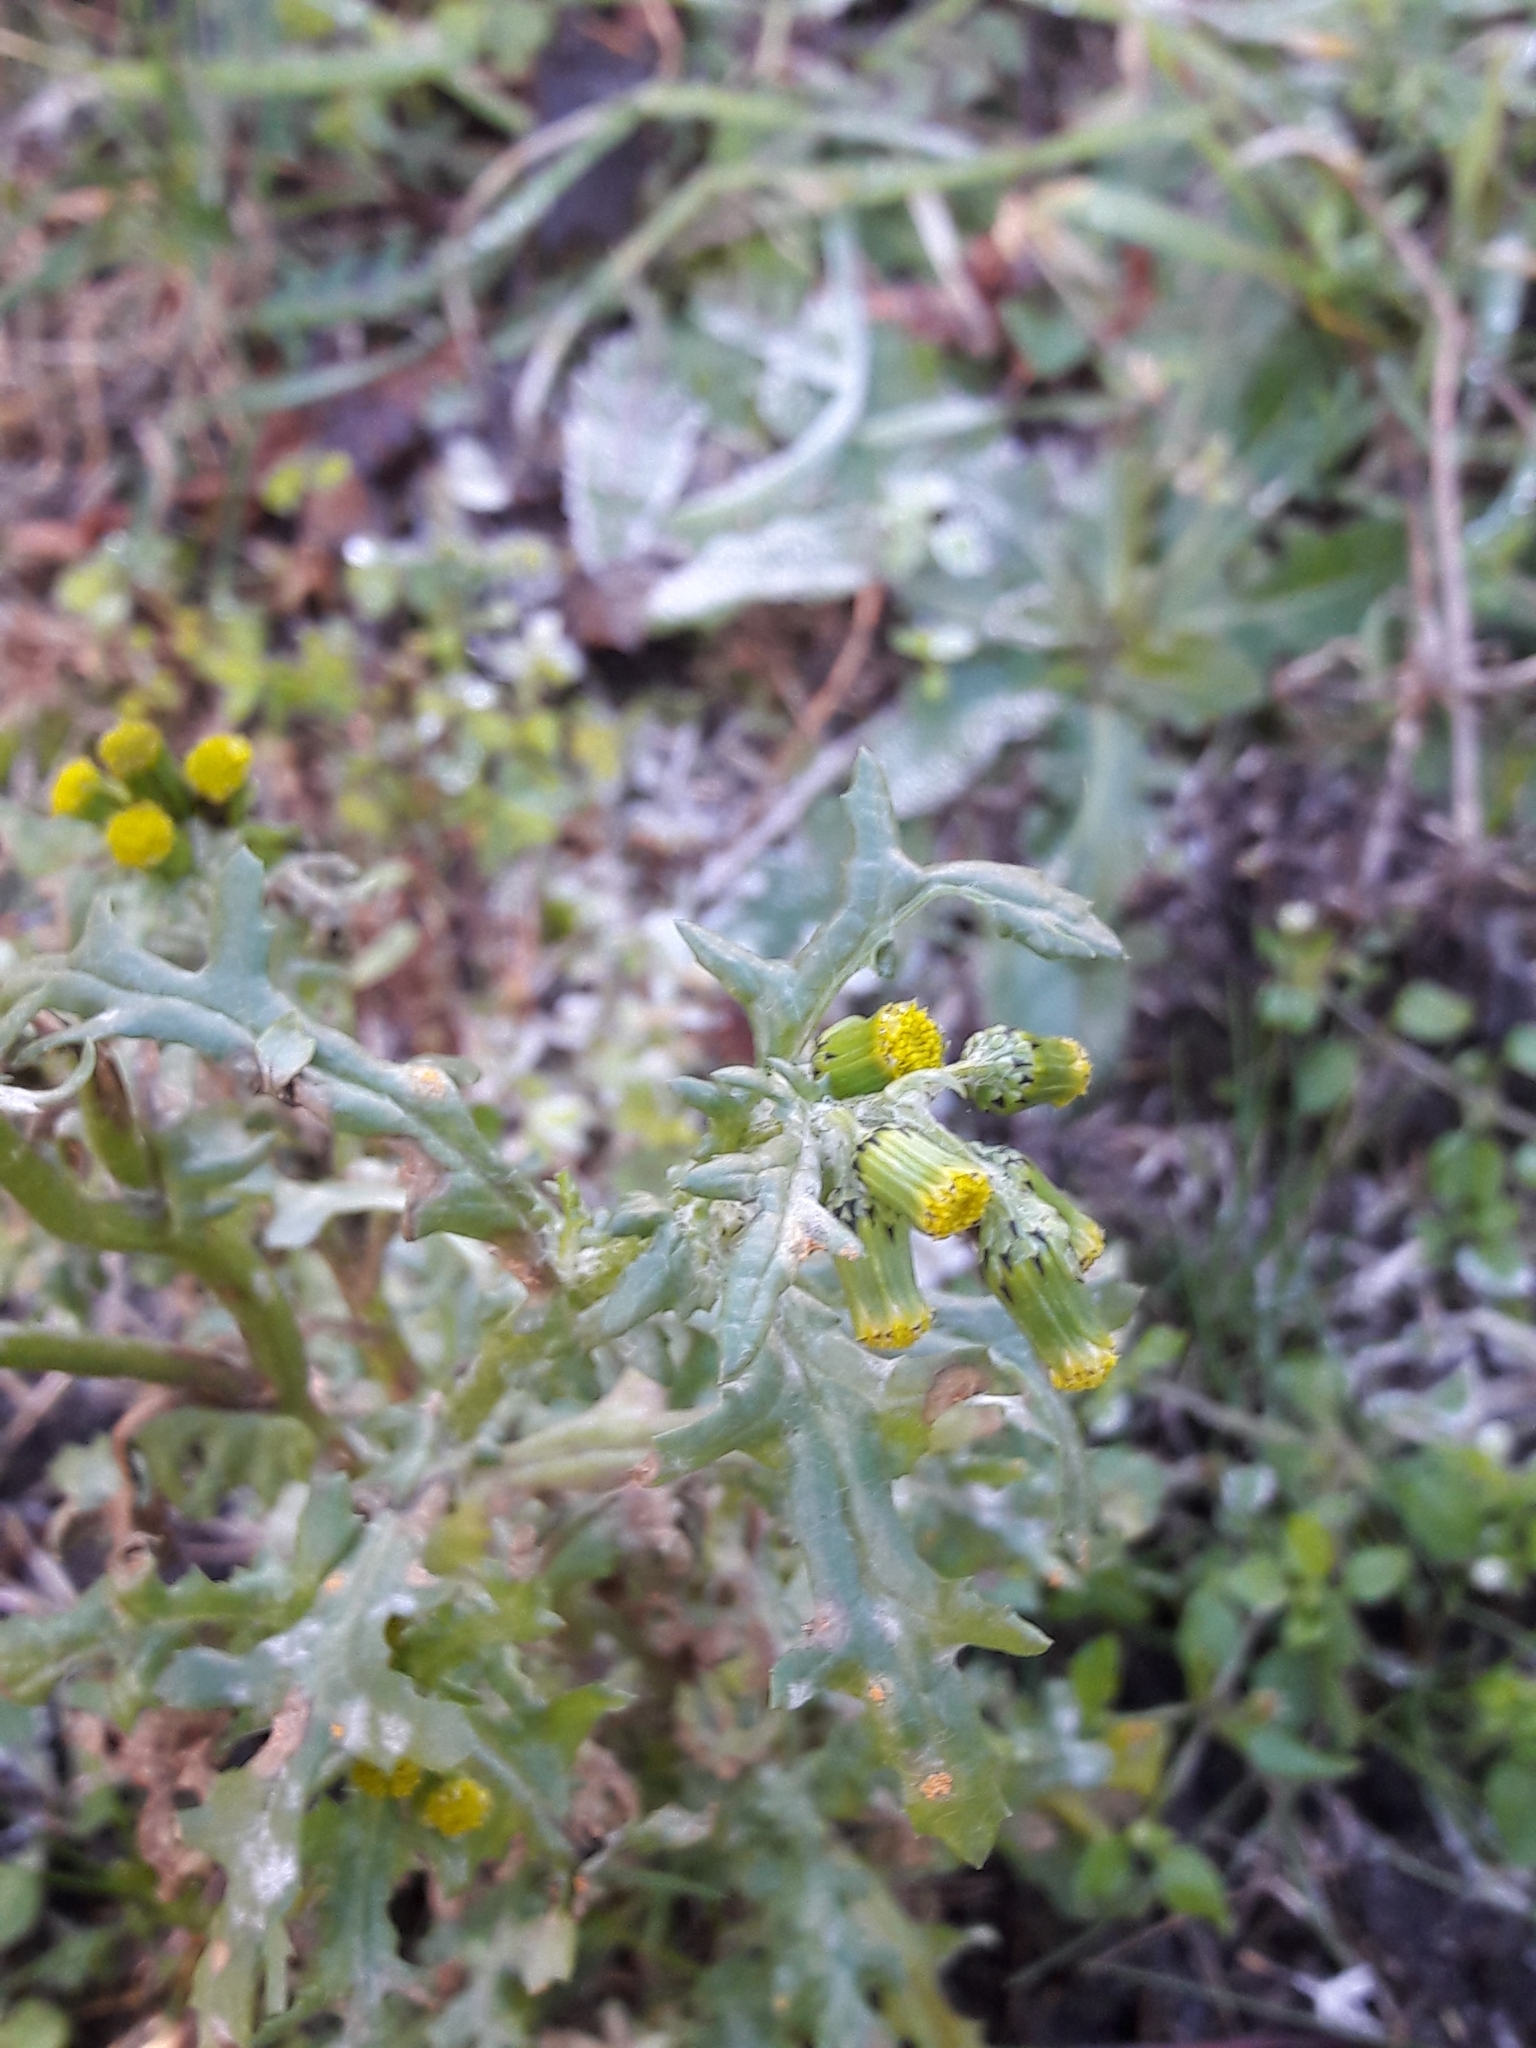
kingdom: Plantae
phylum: Tracheophyta
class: Magnoliopsida
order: Asterales
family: Asteraceae
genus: Senecio
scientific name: Senecio vulgaris
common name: Old-man-in-the-spring
